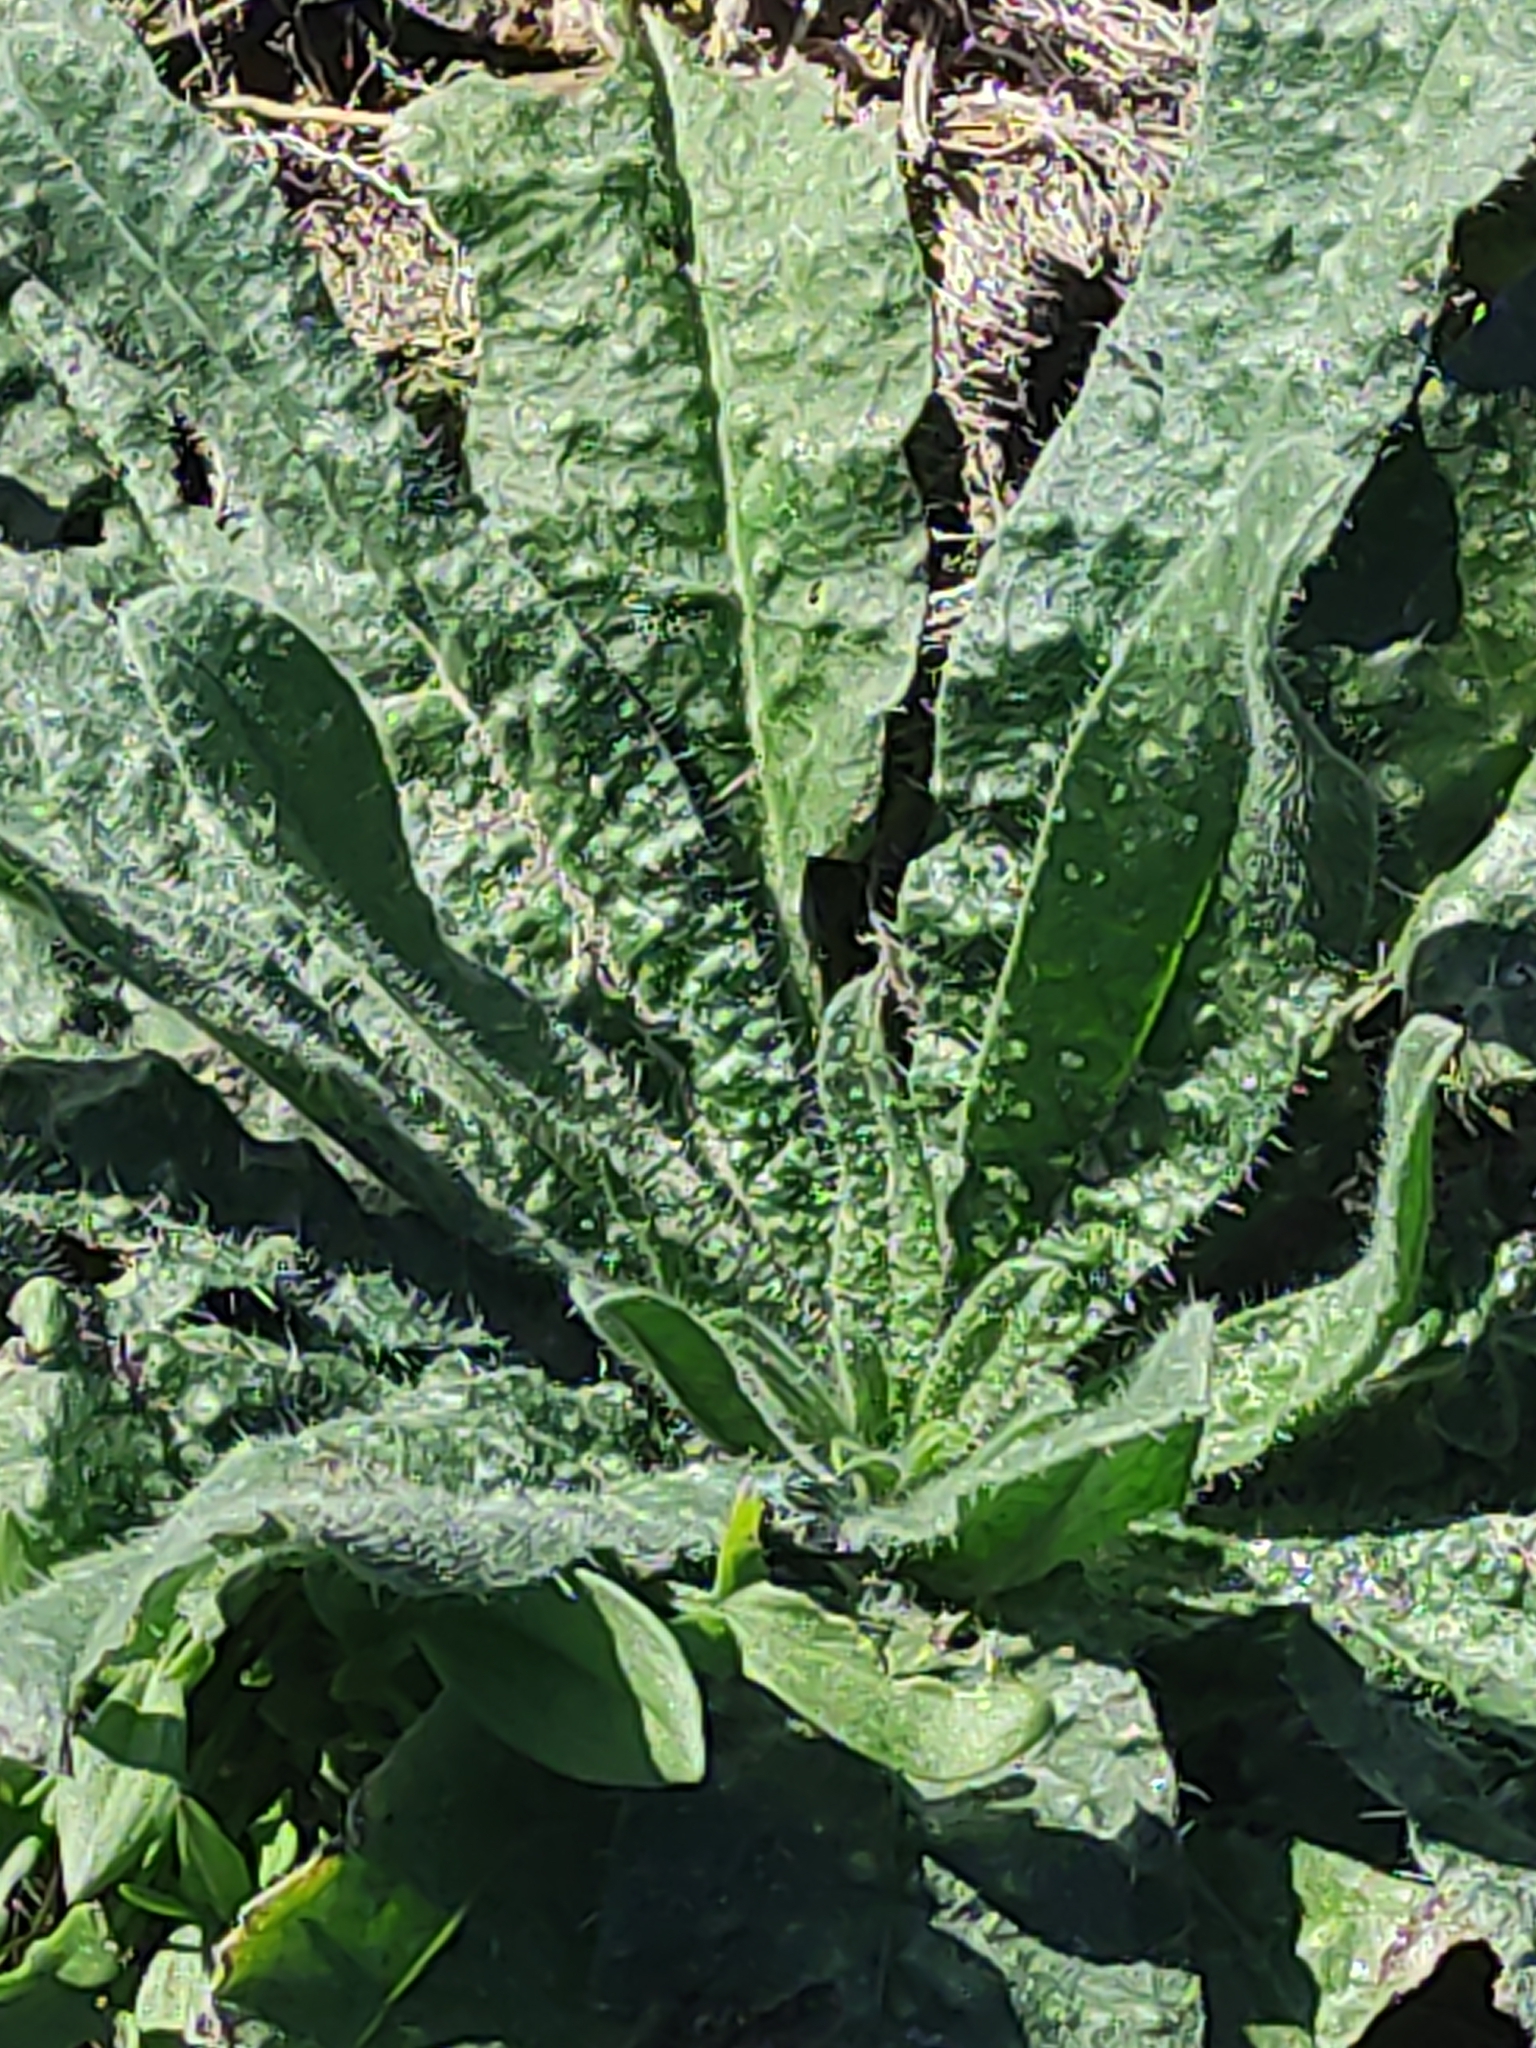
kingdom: Plantae
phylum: Tracheophyta
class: Magnoliopsida
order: Asterales
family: Asteraceae
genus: Helminthotheca
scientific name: Helminthotheca echioides
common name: Ox-tongue
